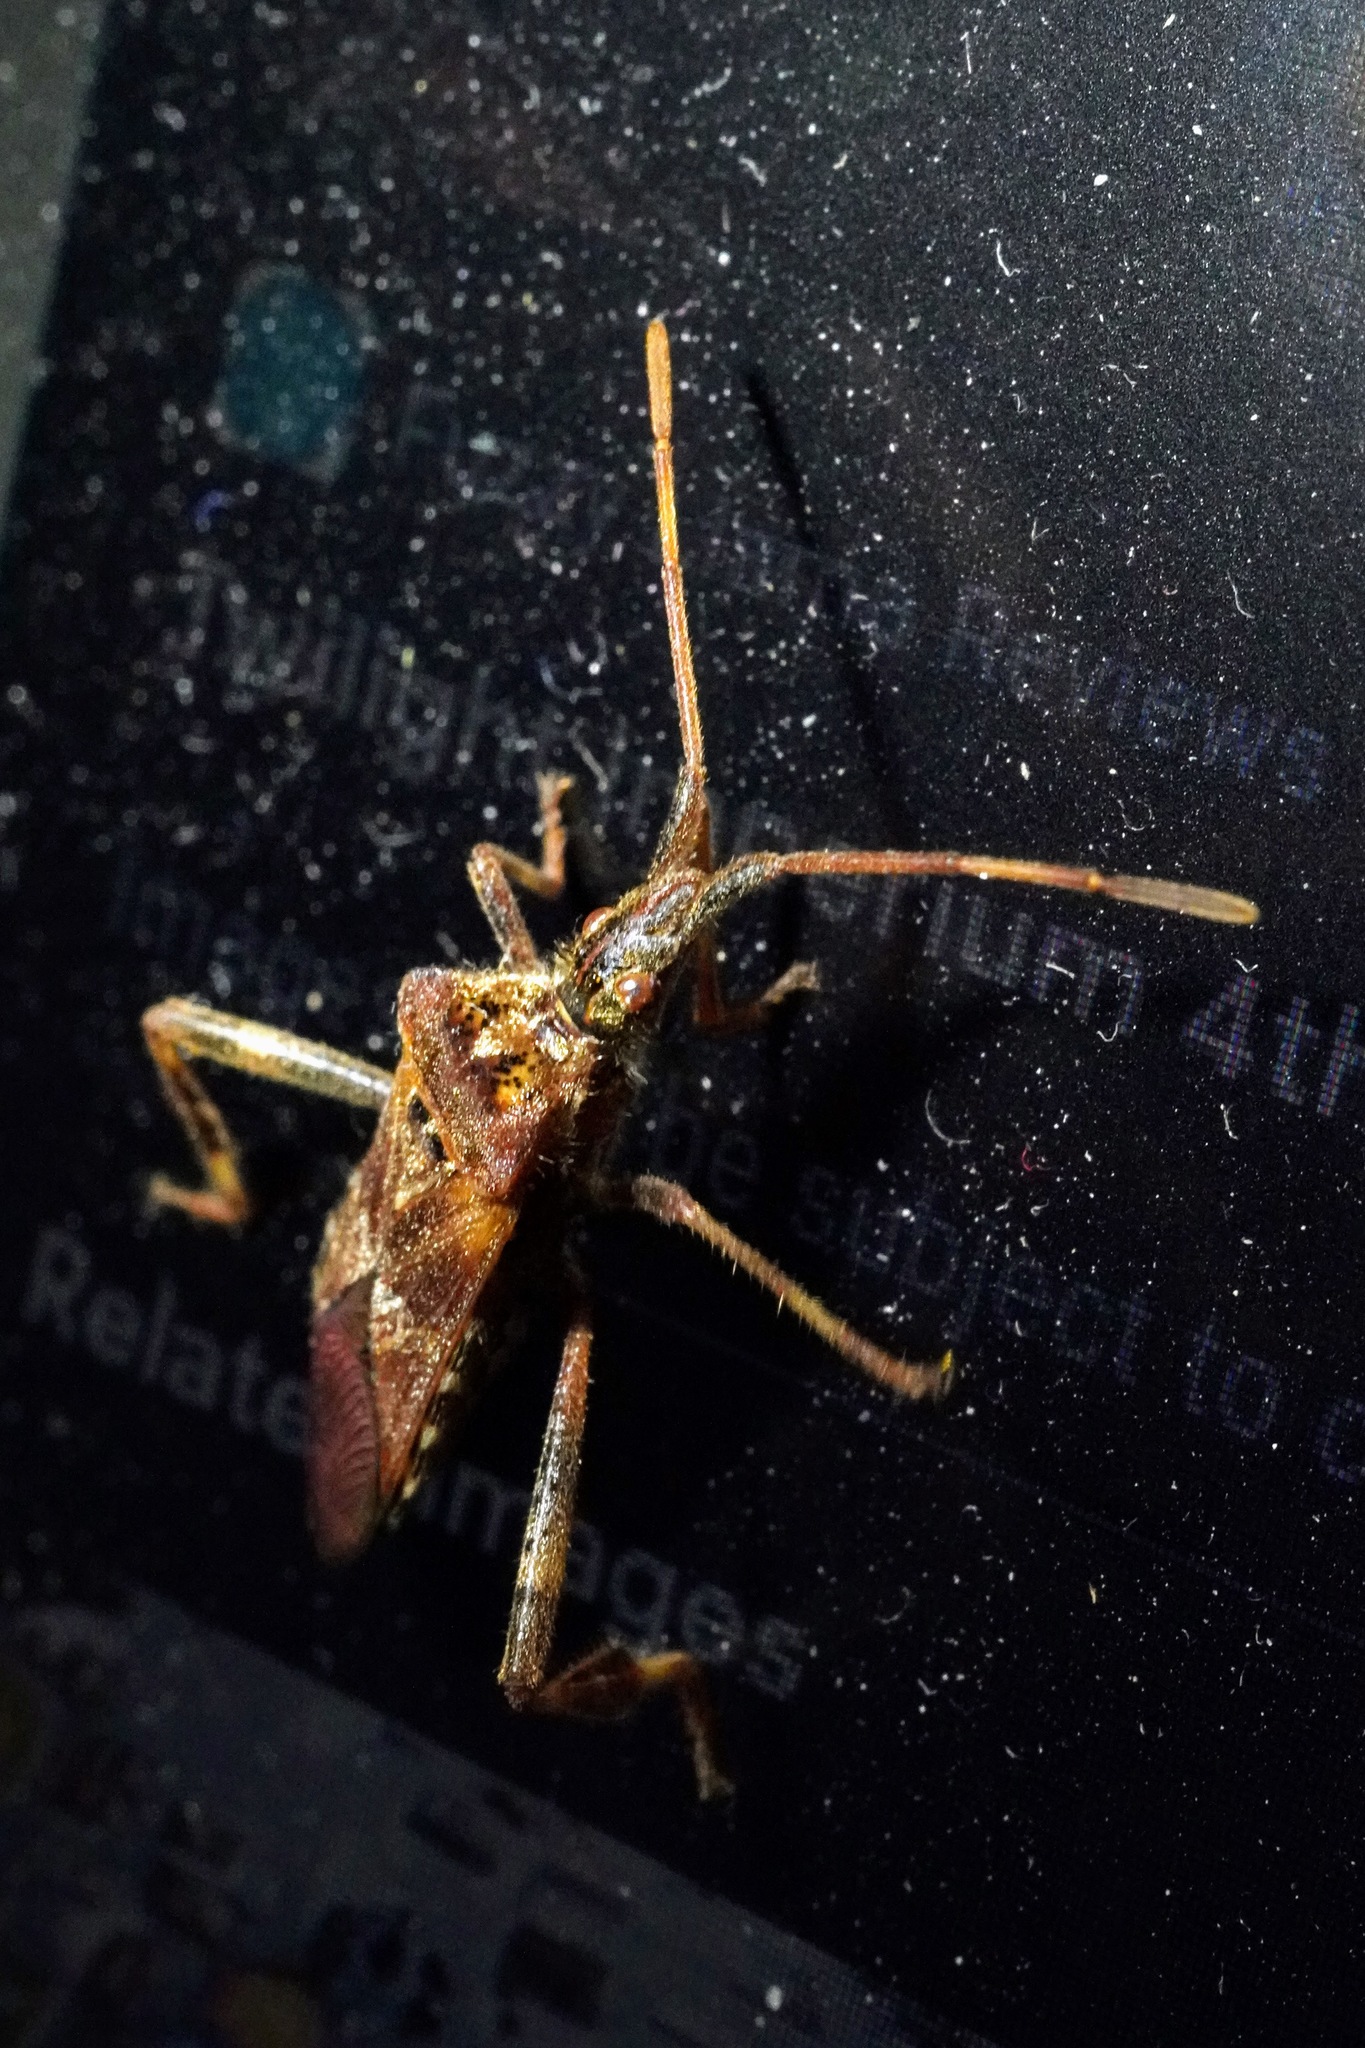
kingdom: Animalia
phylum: Arthropoda
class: Insecta
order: Hemiptera
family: Coreidae
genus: Leptoglossus
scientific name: Leptoglossus occidentalis
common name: Western conifer-seed bug
